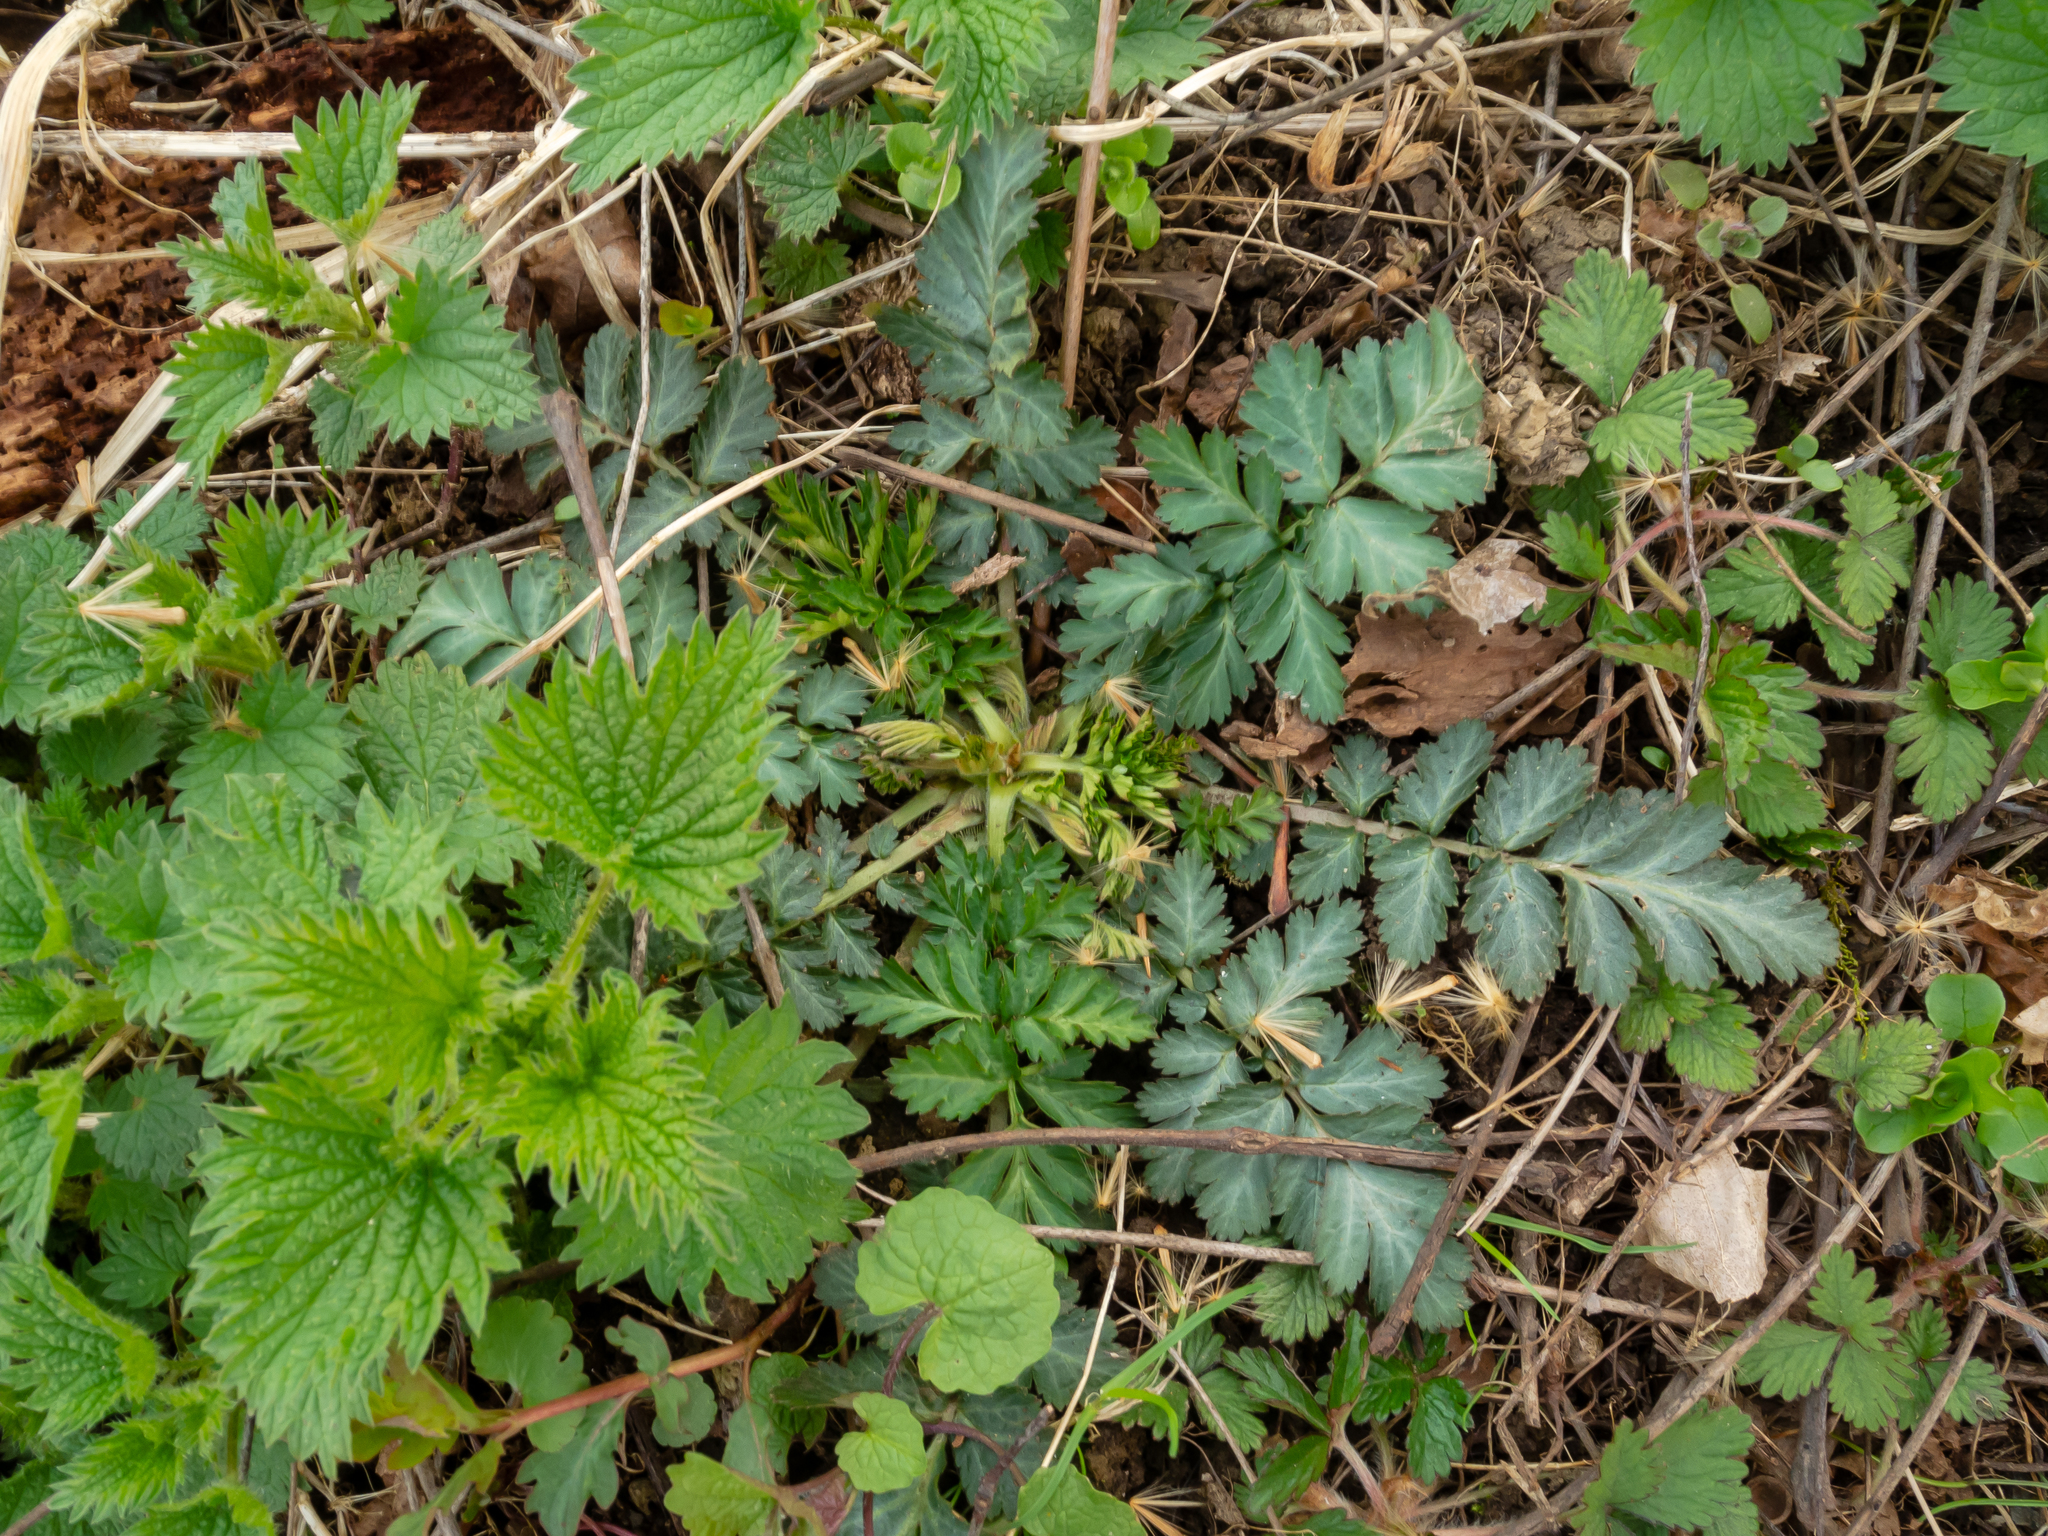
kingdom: Plantae
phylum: Tracheophyta
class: Magnoliopsida
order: Rosales
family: Rosaceae
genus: Geum
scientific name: Geum canadense
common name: White avens
